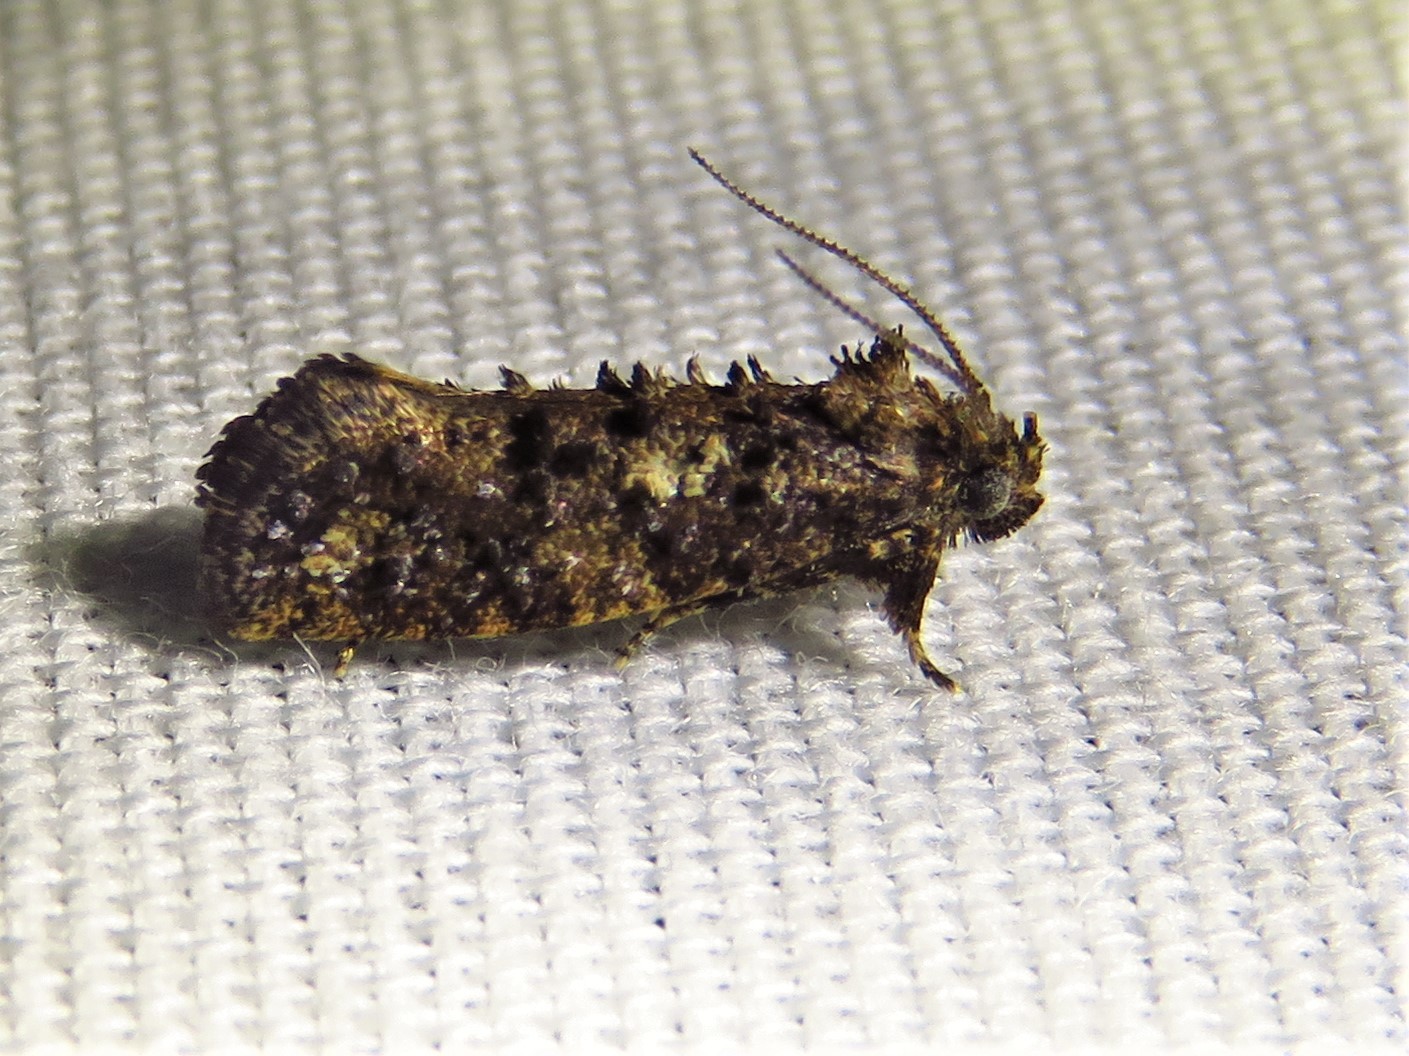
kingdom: Animalia
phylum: Arthropoda
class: Insecta
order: Lepidoptera
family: Tineidae
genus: Acrolophus
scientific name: Acrolophus cressoni
